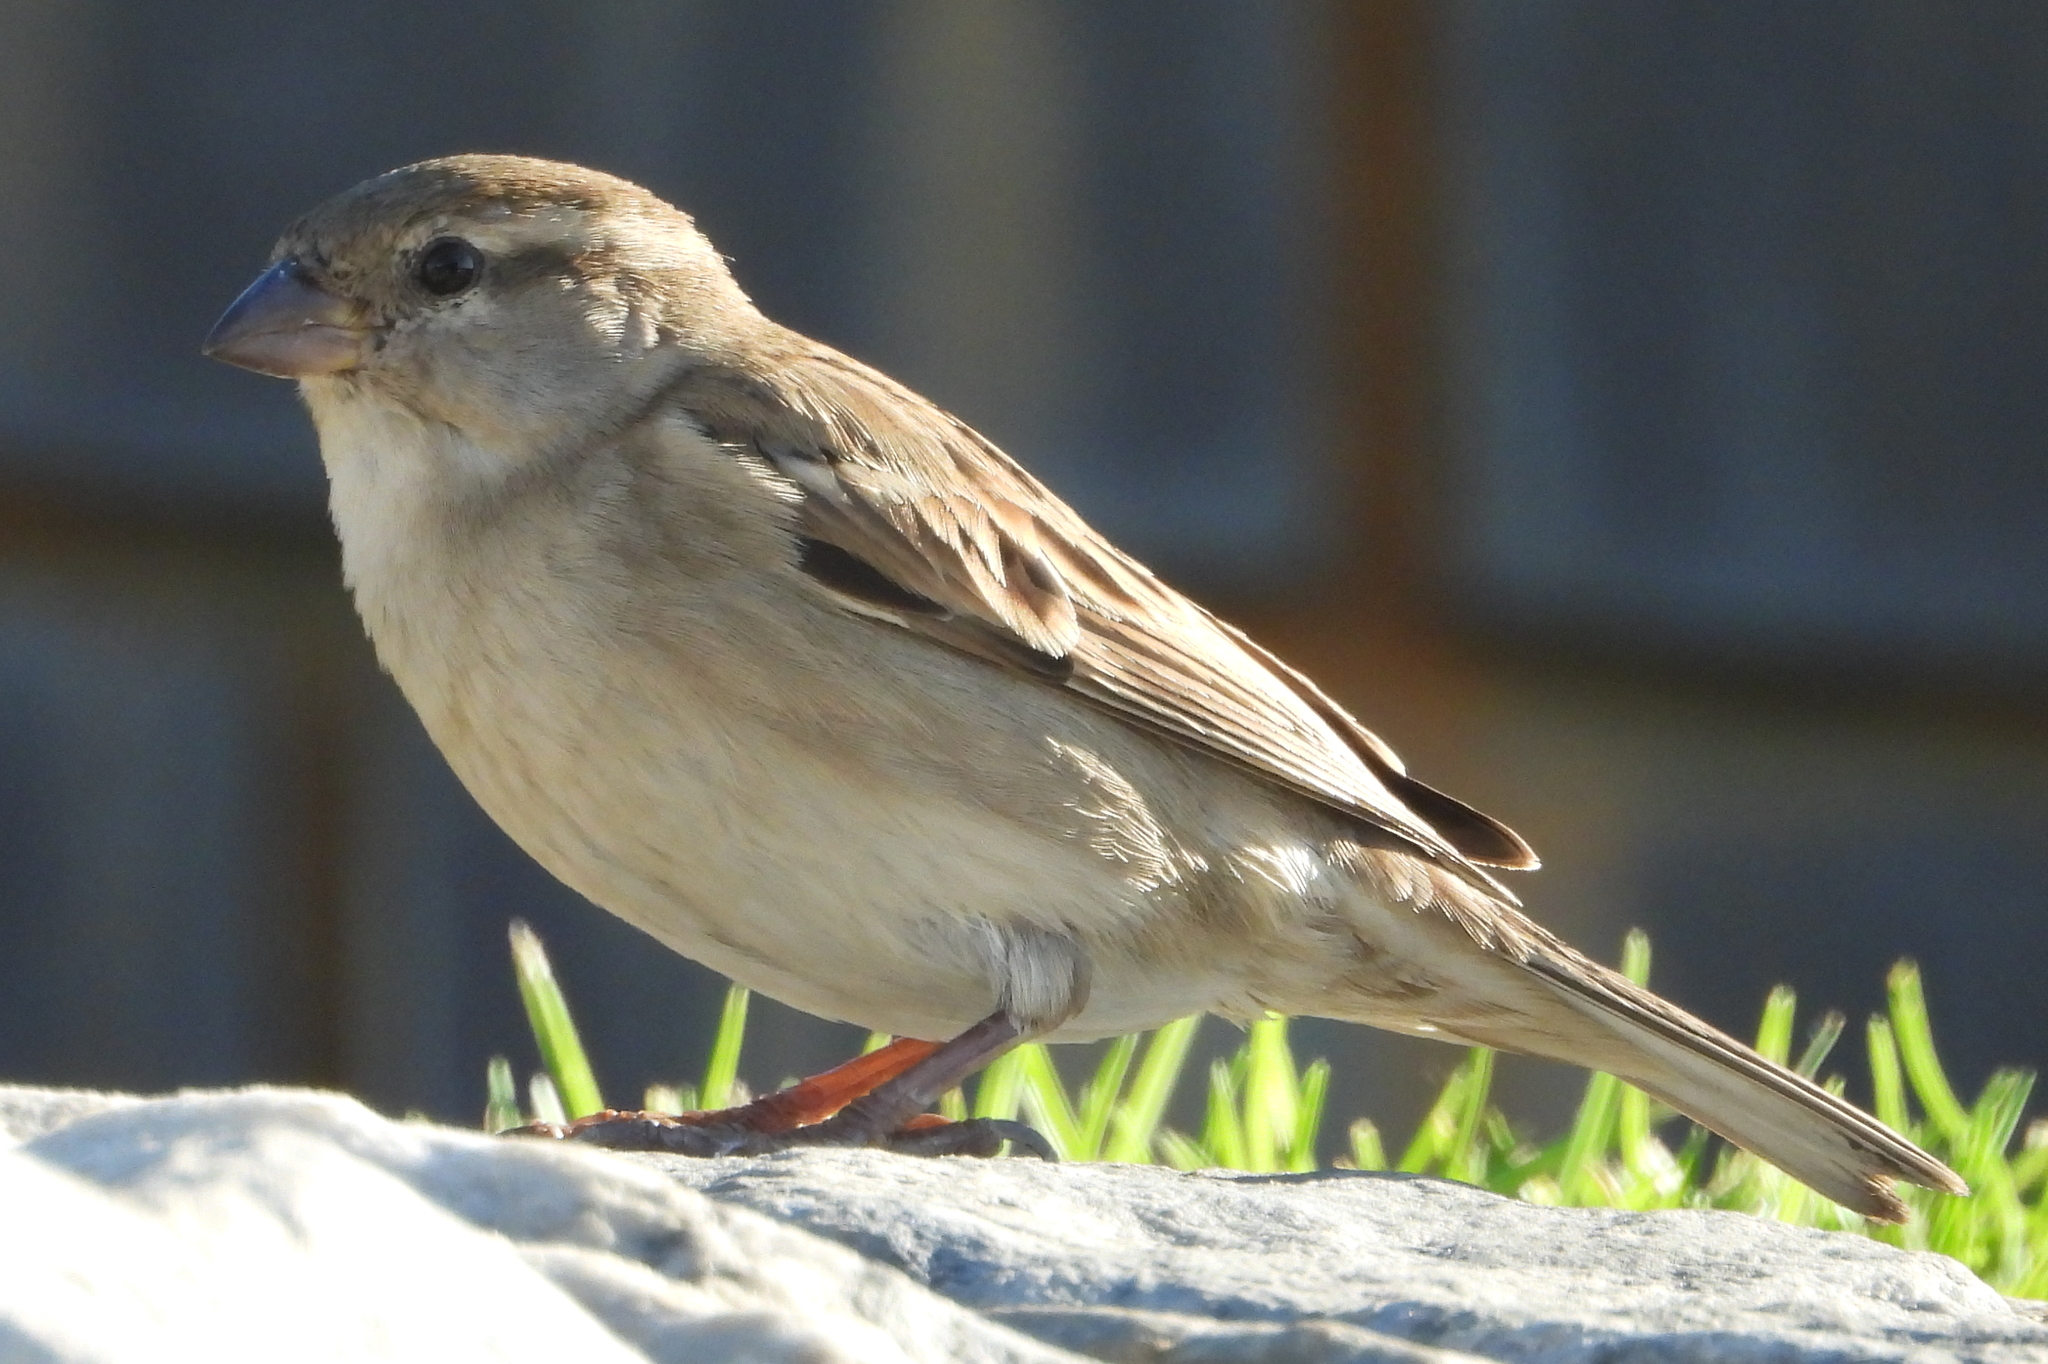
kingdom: Animalia
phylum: Chordata
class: Aves
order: Passeriformes
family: Passeridae
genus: Passer
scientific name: Passer domesticus
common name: House sparrow
